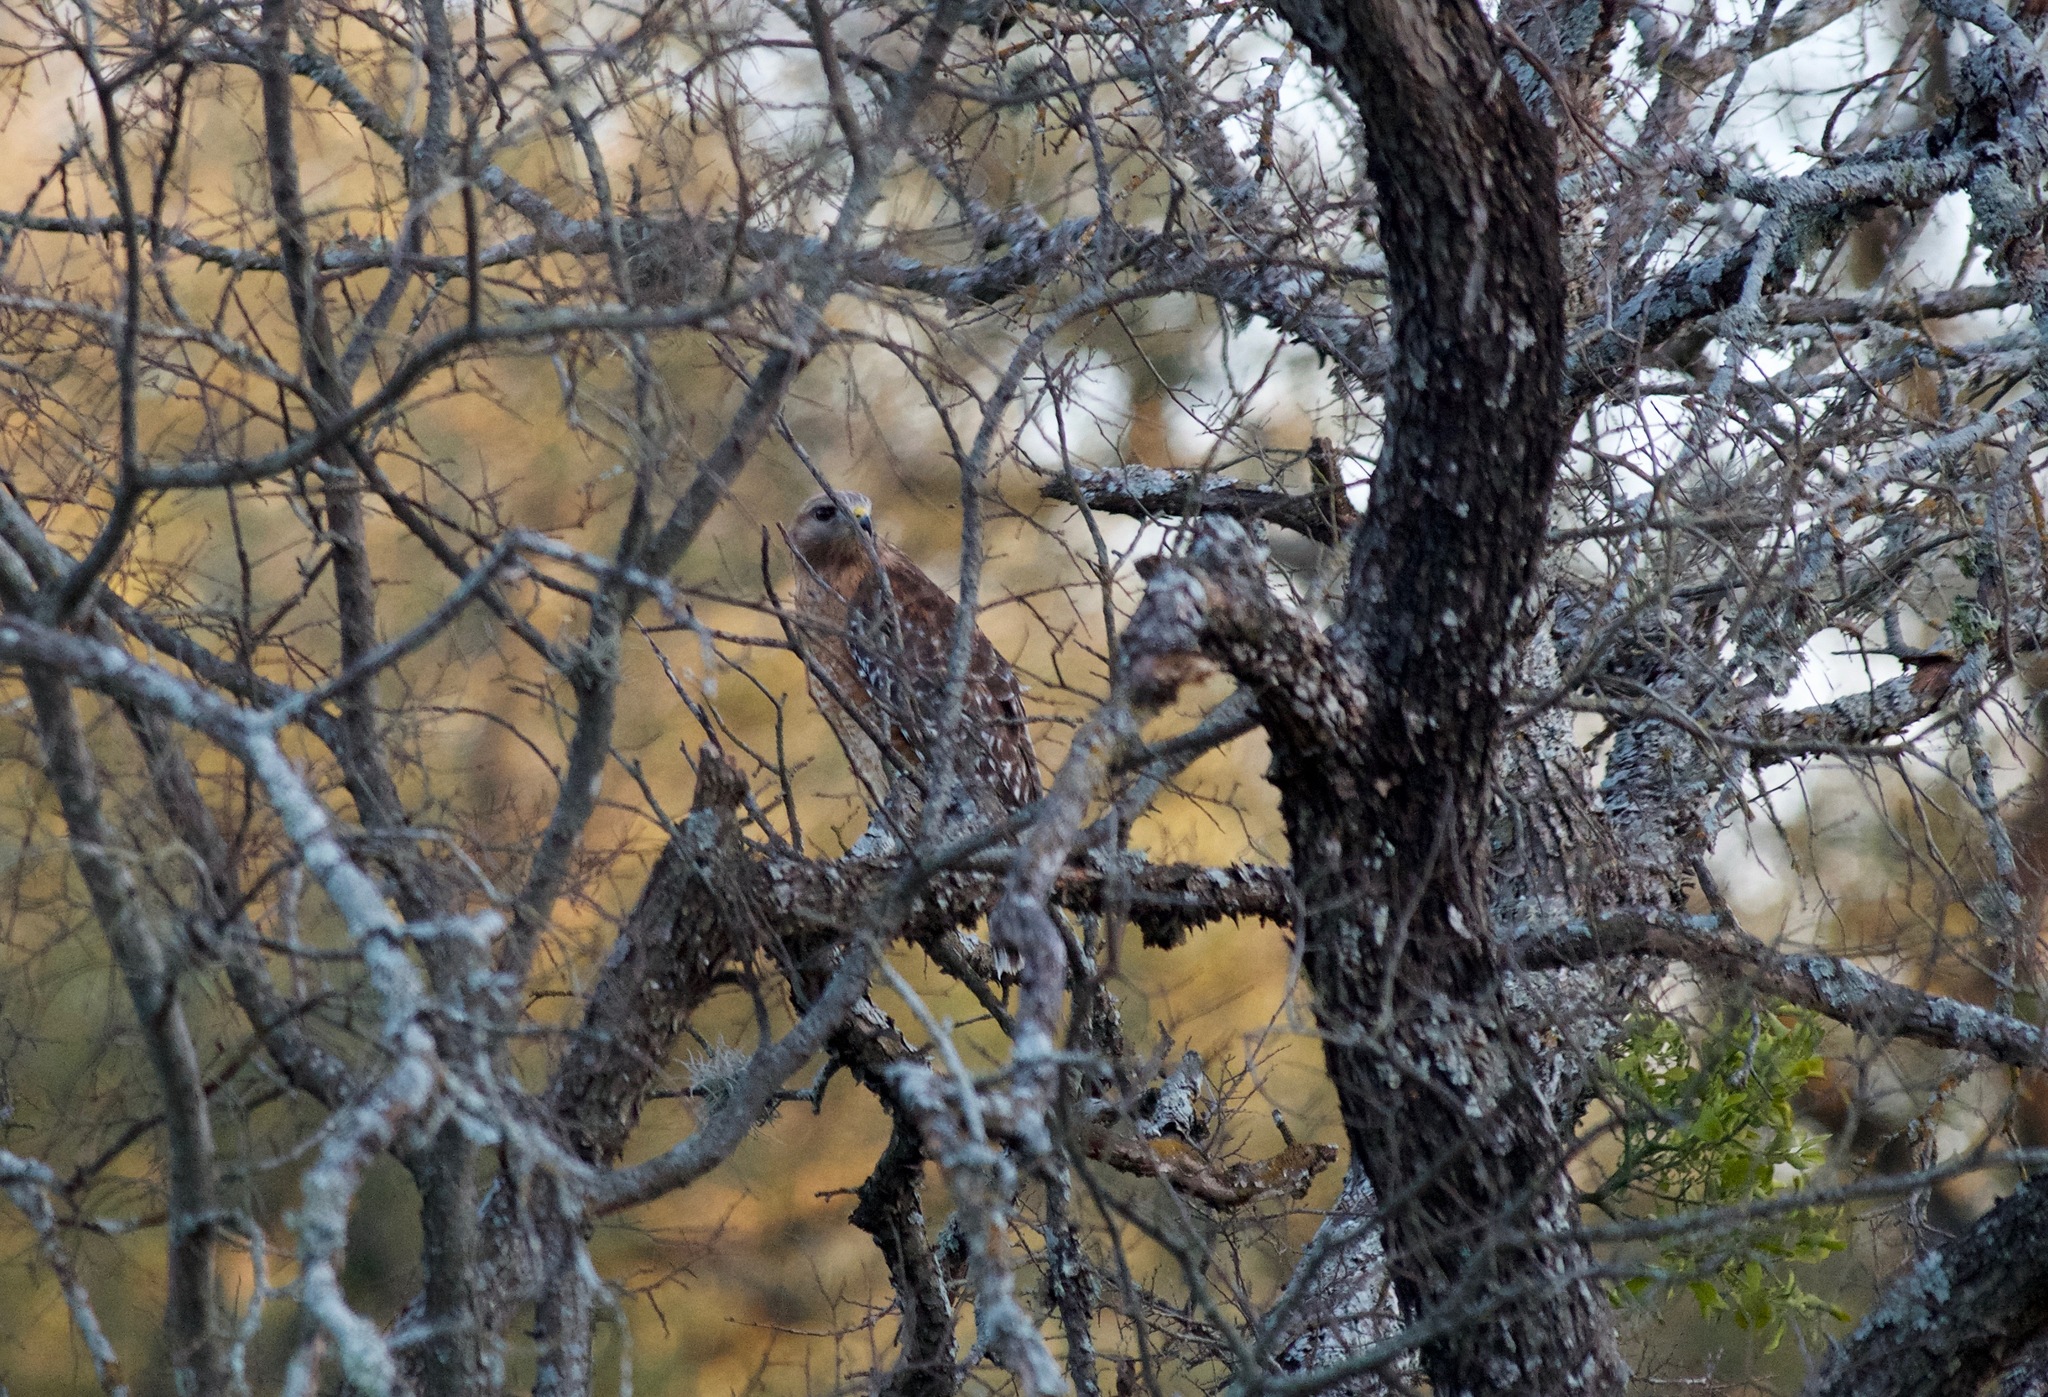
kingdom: Animalia
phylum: Chordata
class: Aves
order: Accipitriformes
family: Accipitridae
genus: Buteo
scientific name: Buteo lineatus
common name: Red-shouldered hawk
